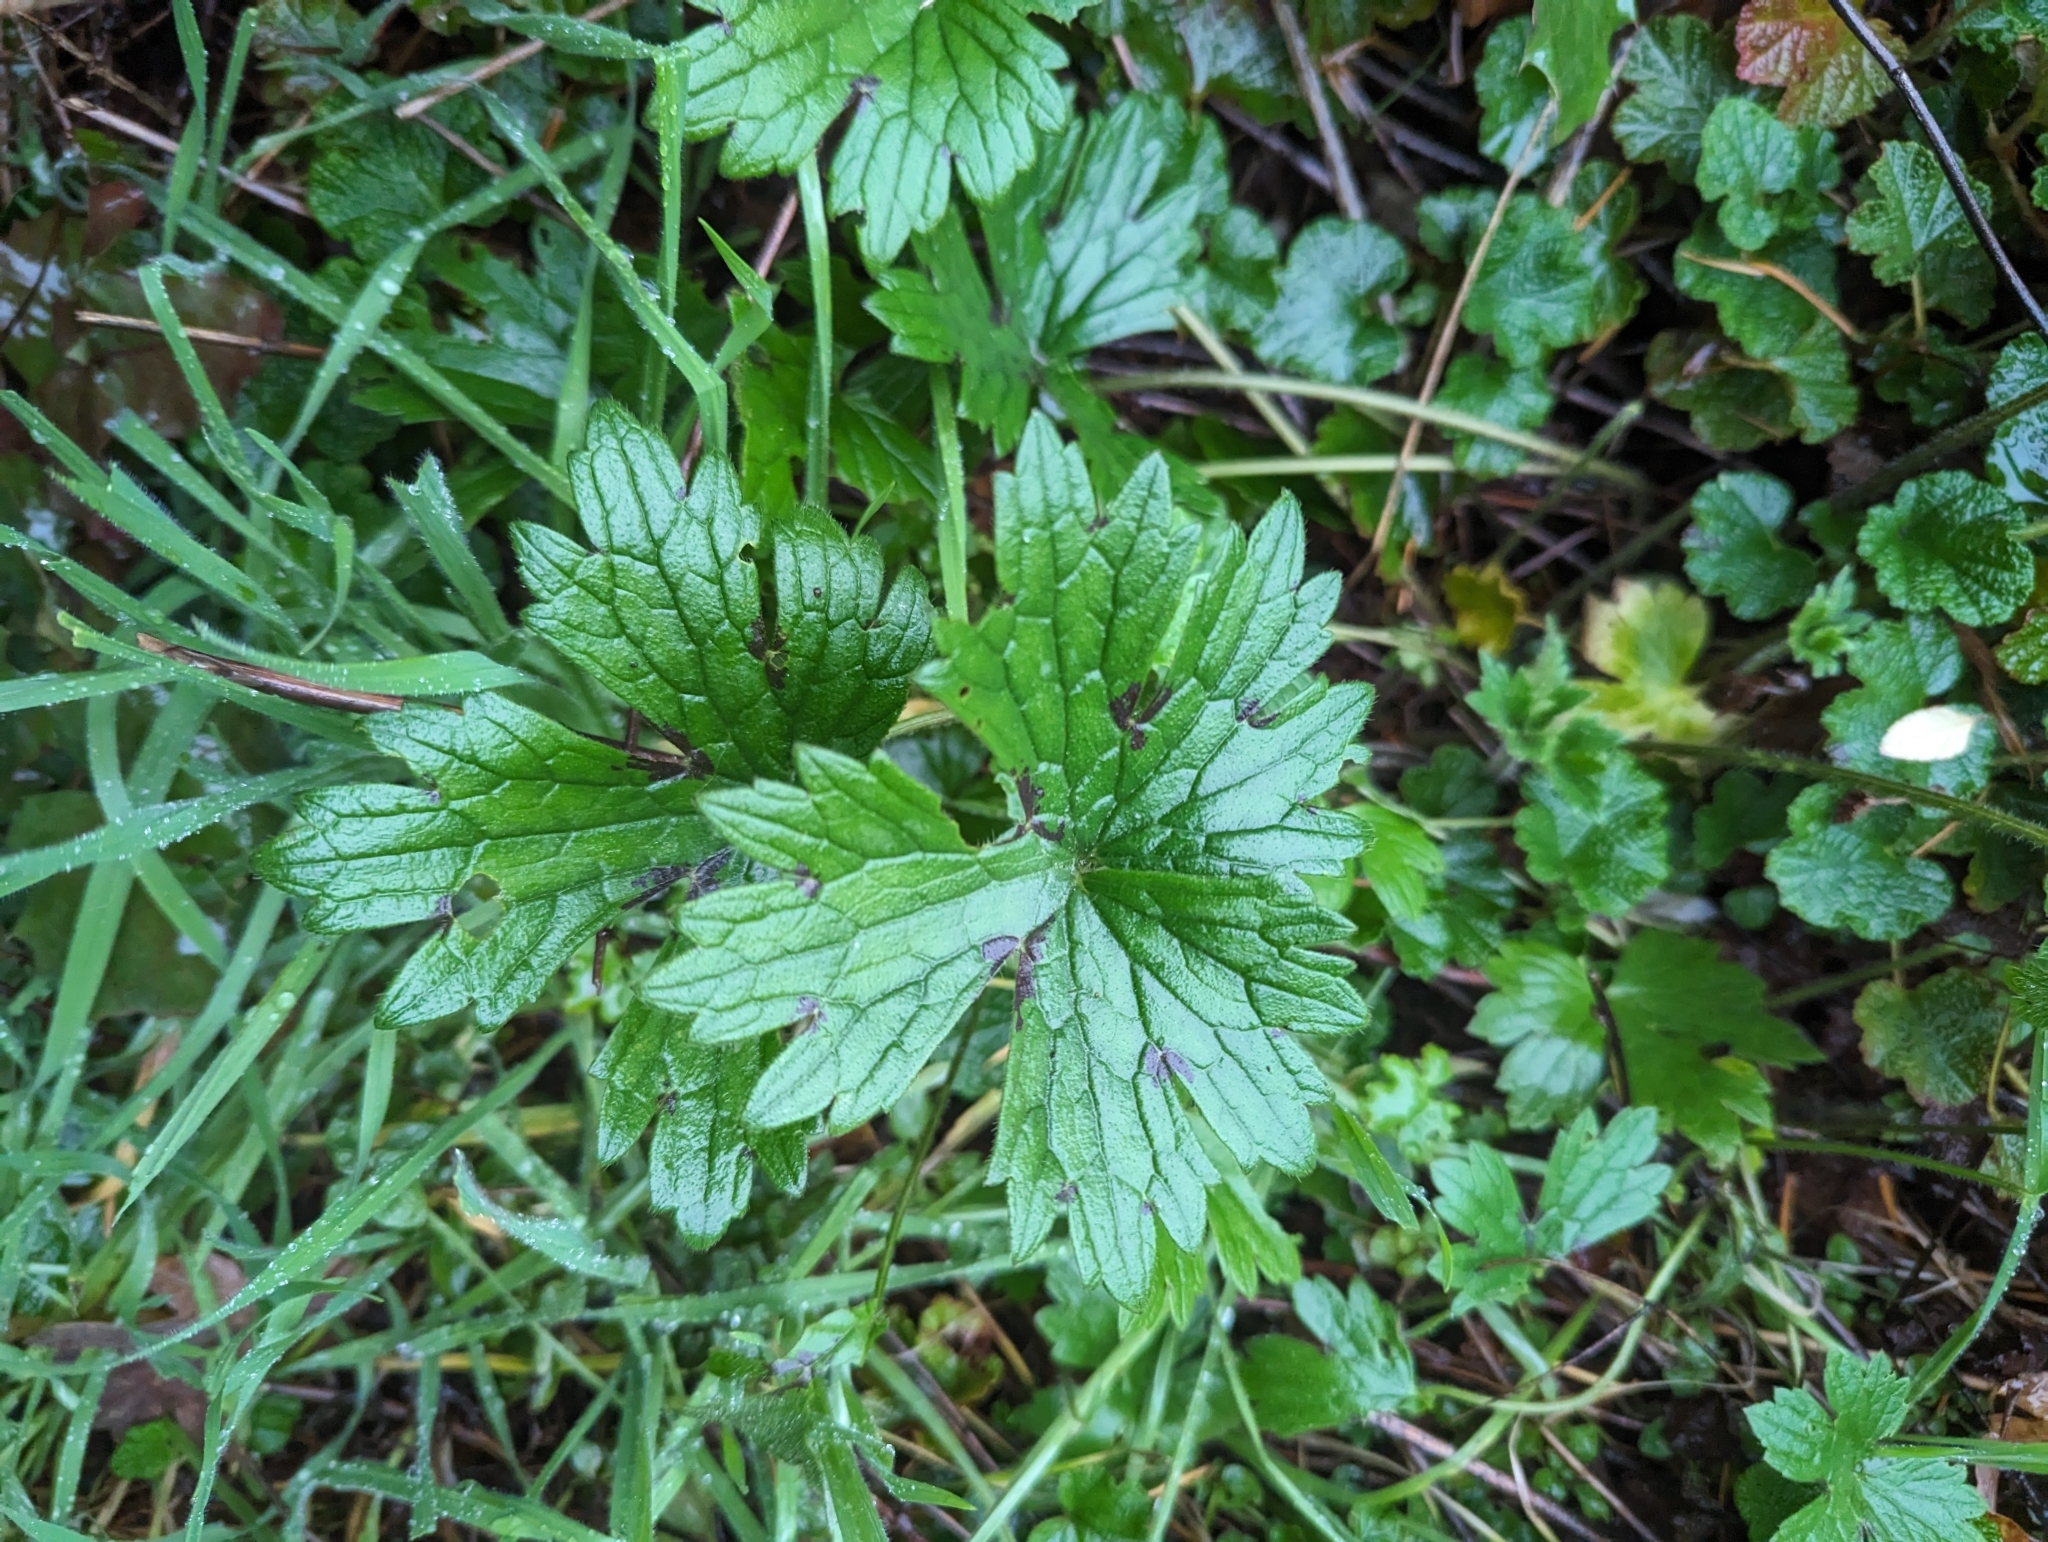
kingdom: Plantae
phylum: Tracheophyta
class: Magnoliopsida
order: Ranunculales
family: Ranunculaceae
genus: Ranunculus
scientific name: Ranunculus acris
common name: Meadow buttercup
